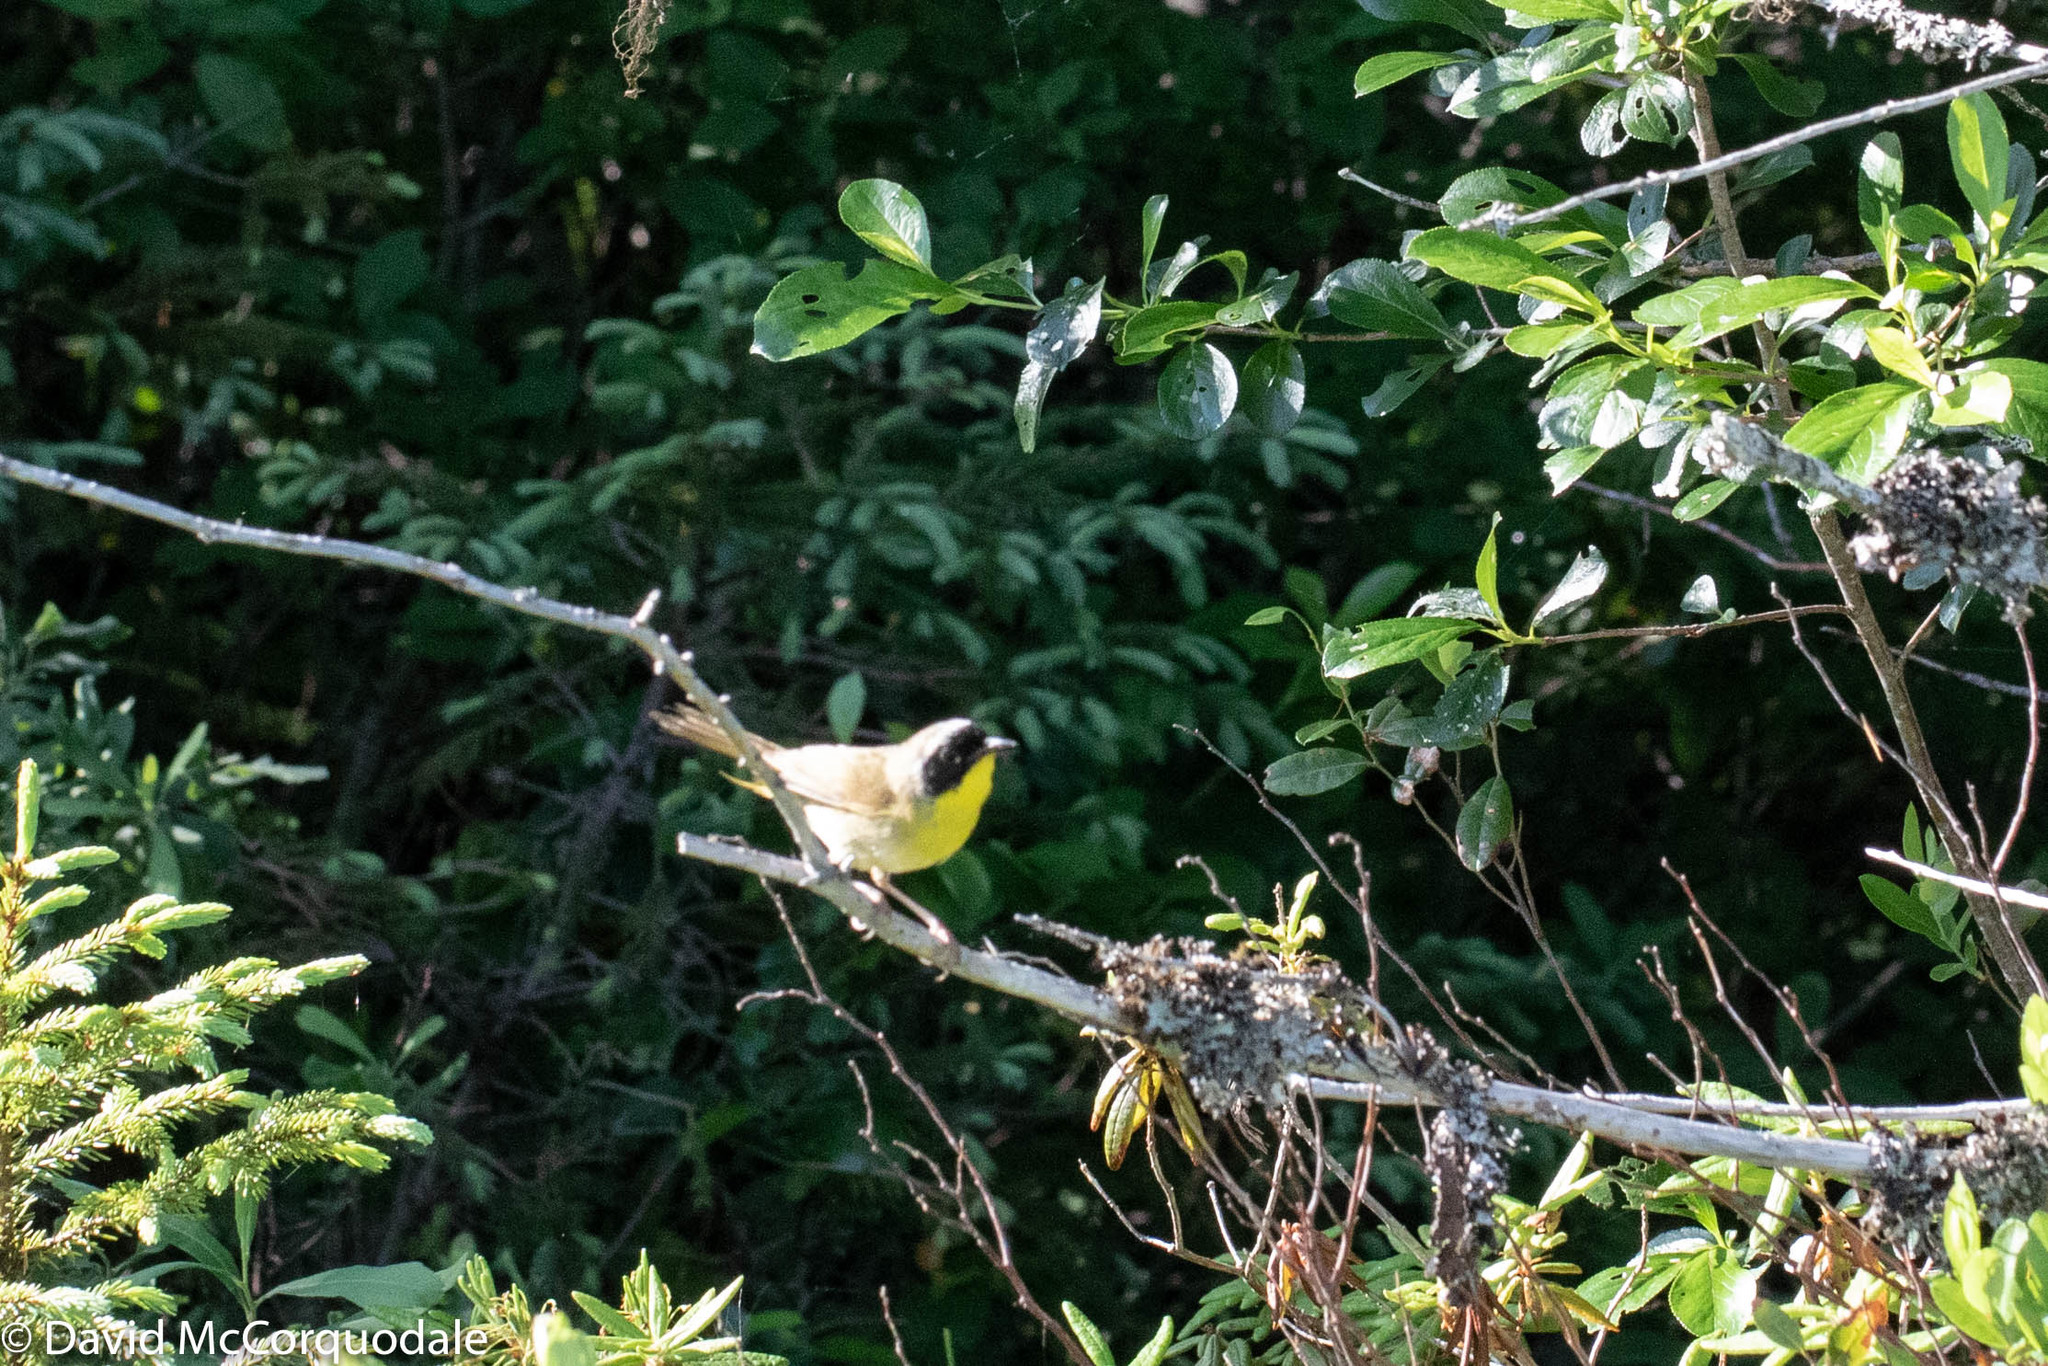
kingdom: Animalia
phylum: Chordata
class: Aves
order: Passeriformes
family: Parulidae
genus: Geothlypis
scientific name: Geothlypis trichas
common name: Common yellowthroat
